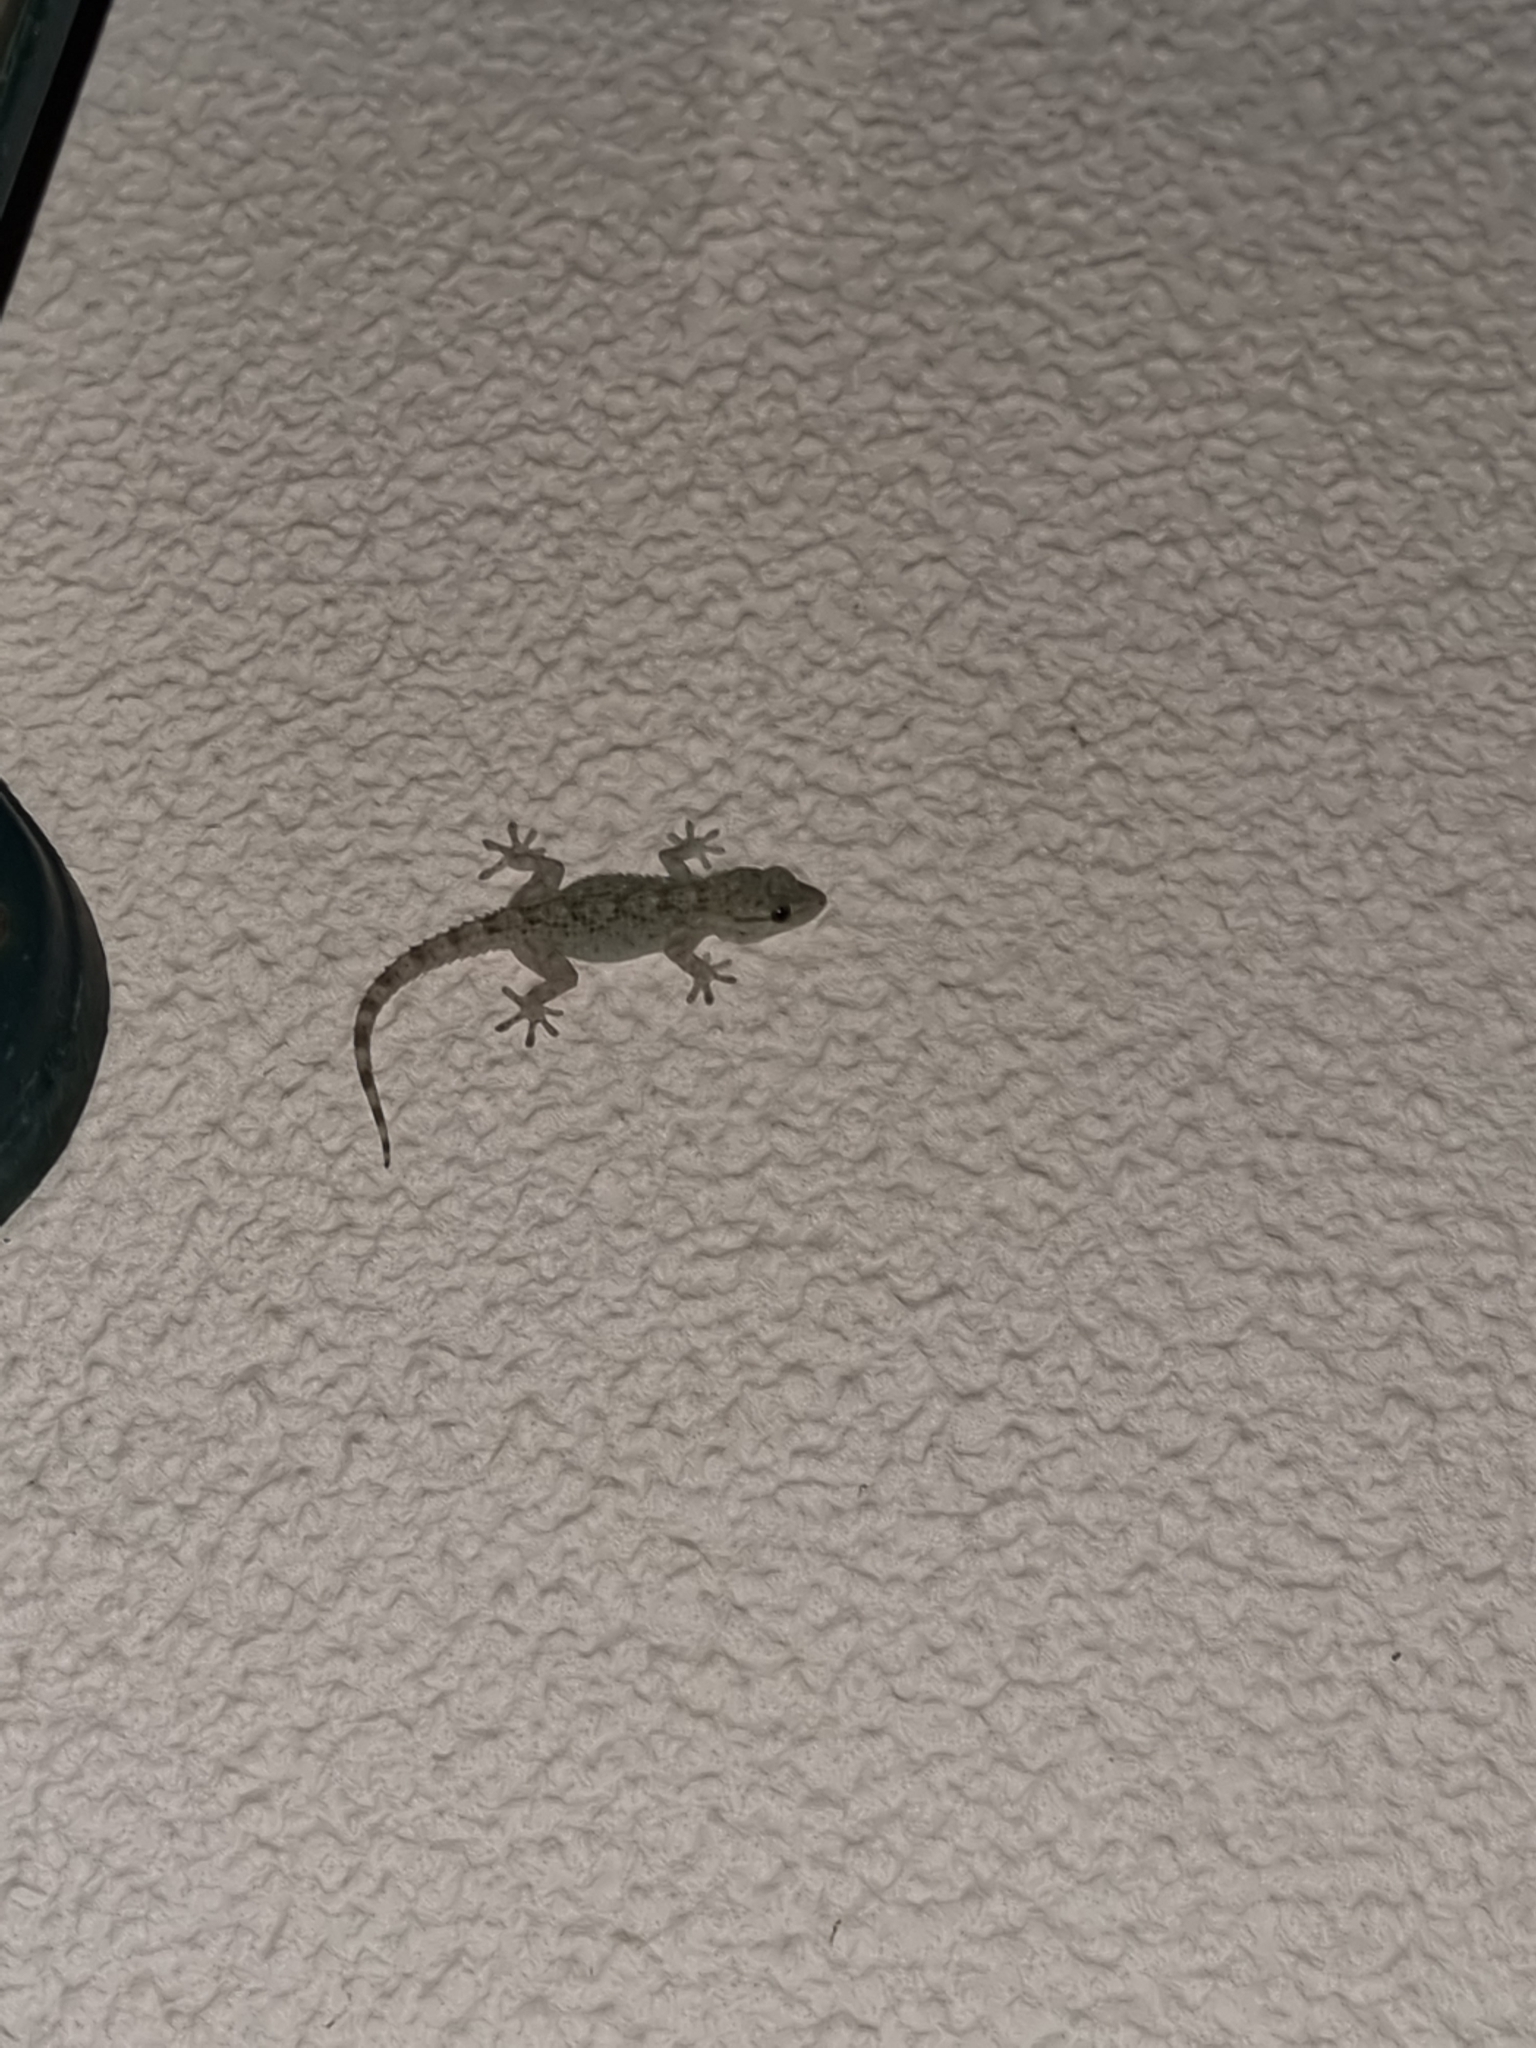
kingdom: Animalia
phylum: Chordata
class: Squamata
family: Phyllodactylidae
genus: Tarentola
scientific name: Tarentola mauritanica
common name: Moorish gecko
